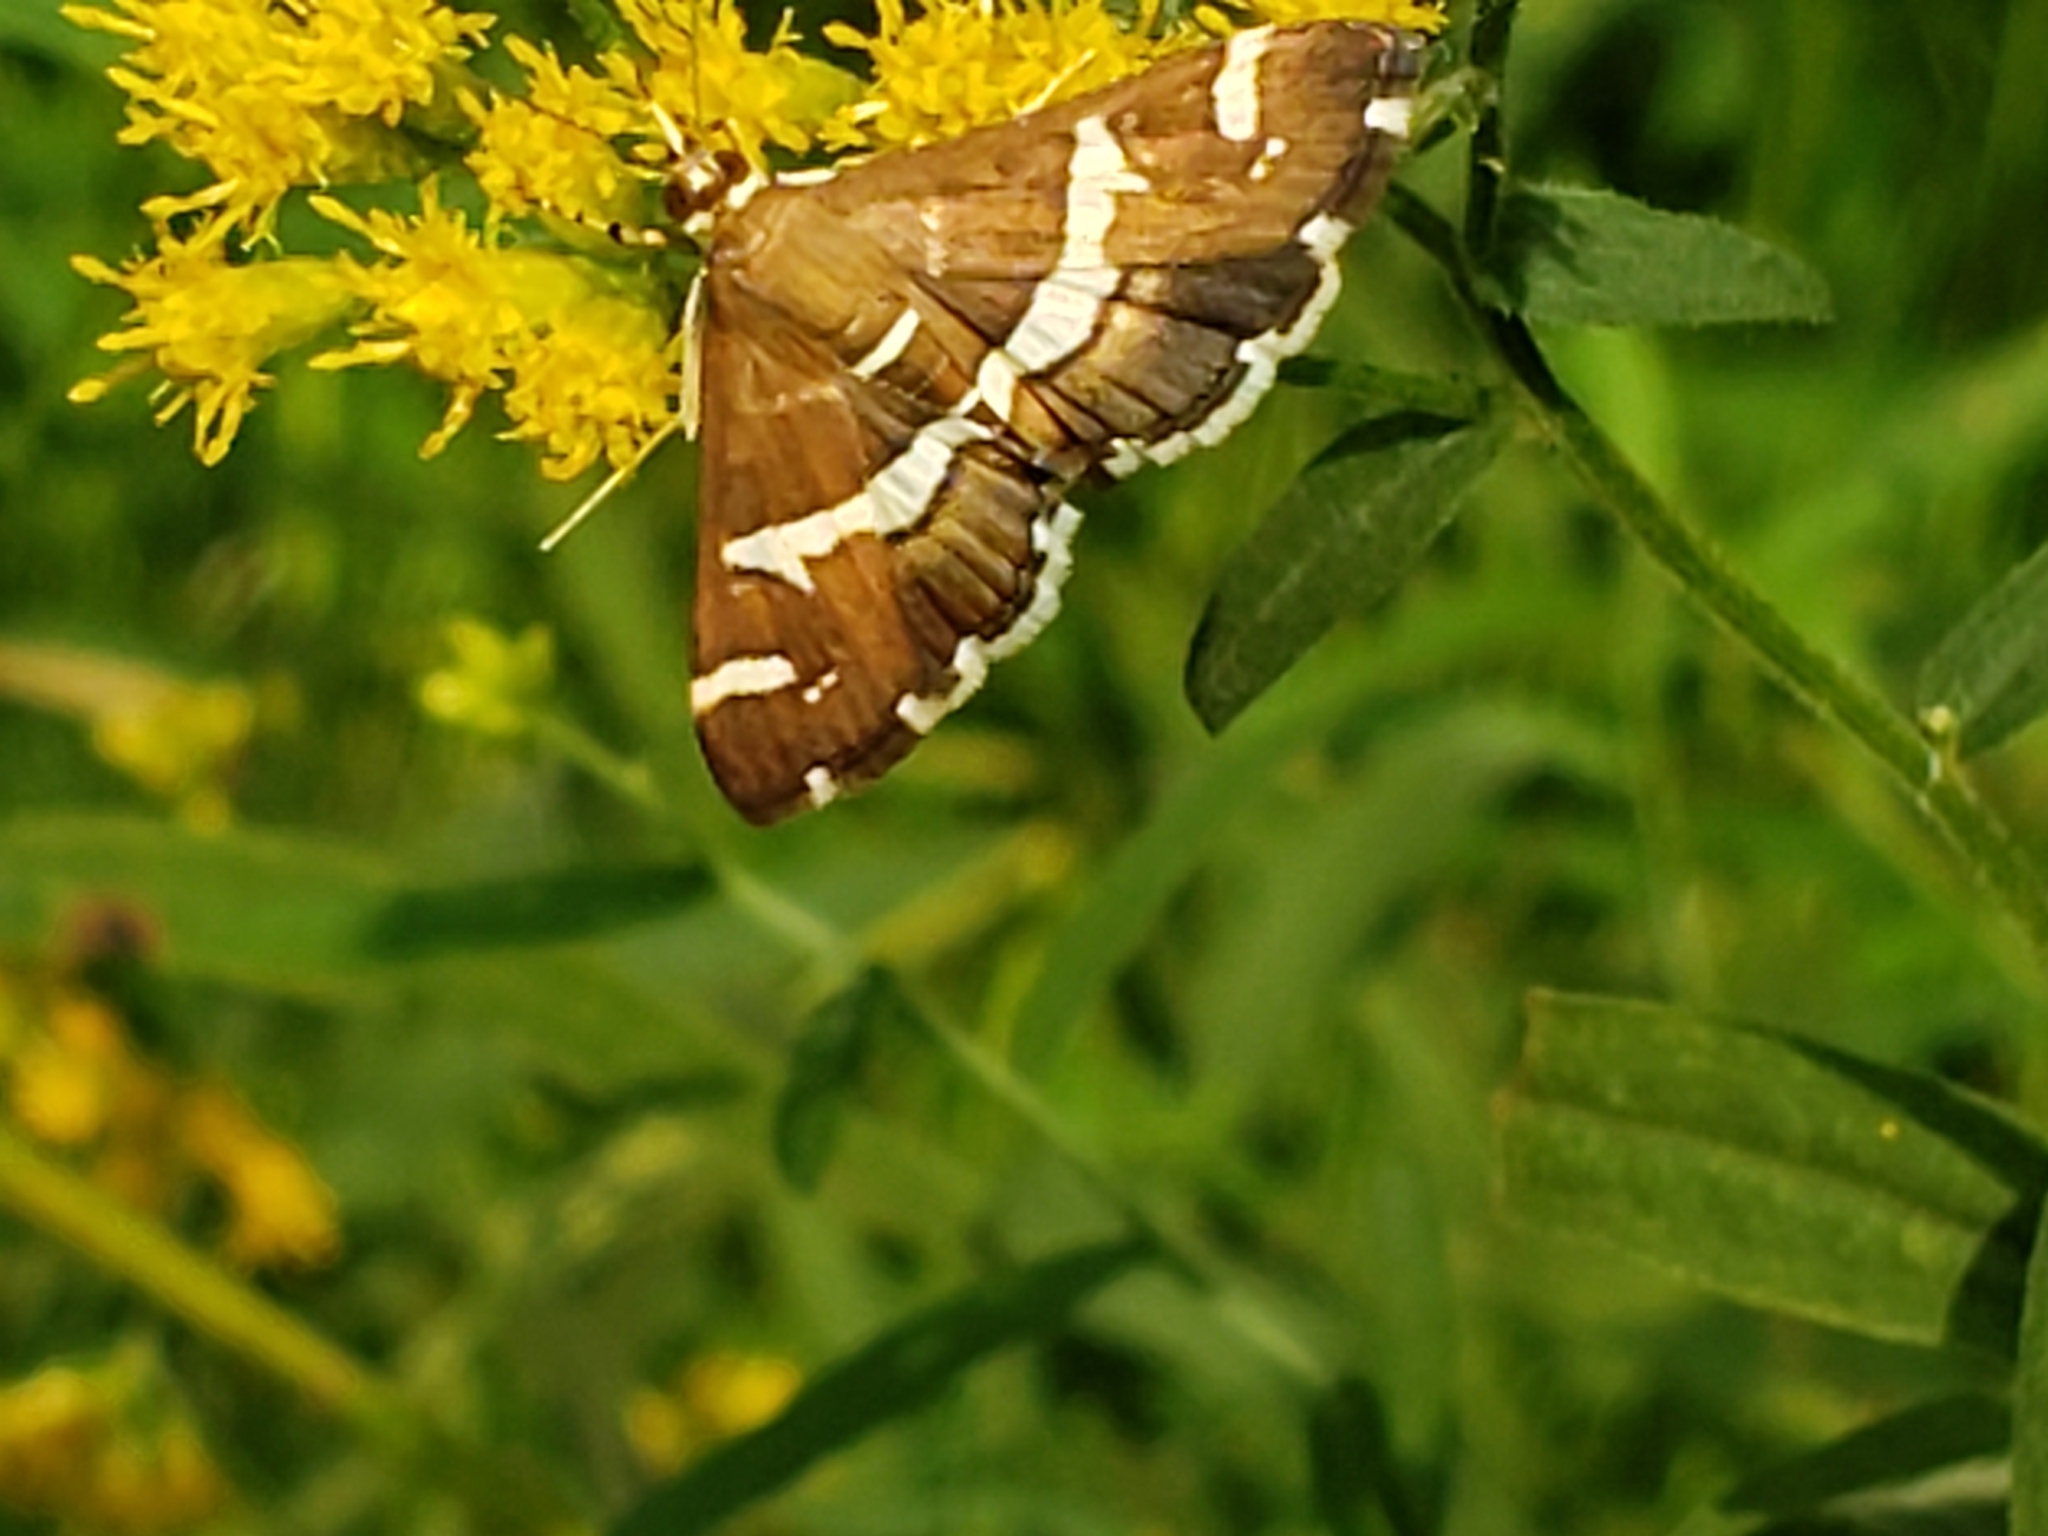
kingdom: Animalia
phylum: Arthropoda
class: Insecta
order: Lepidoptera
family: Crambidae
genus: Spoladea
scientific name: Spoladea recurvalis
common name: Beet webworm moth
